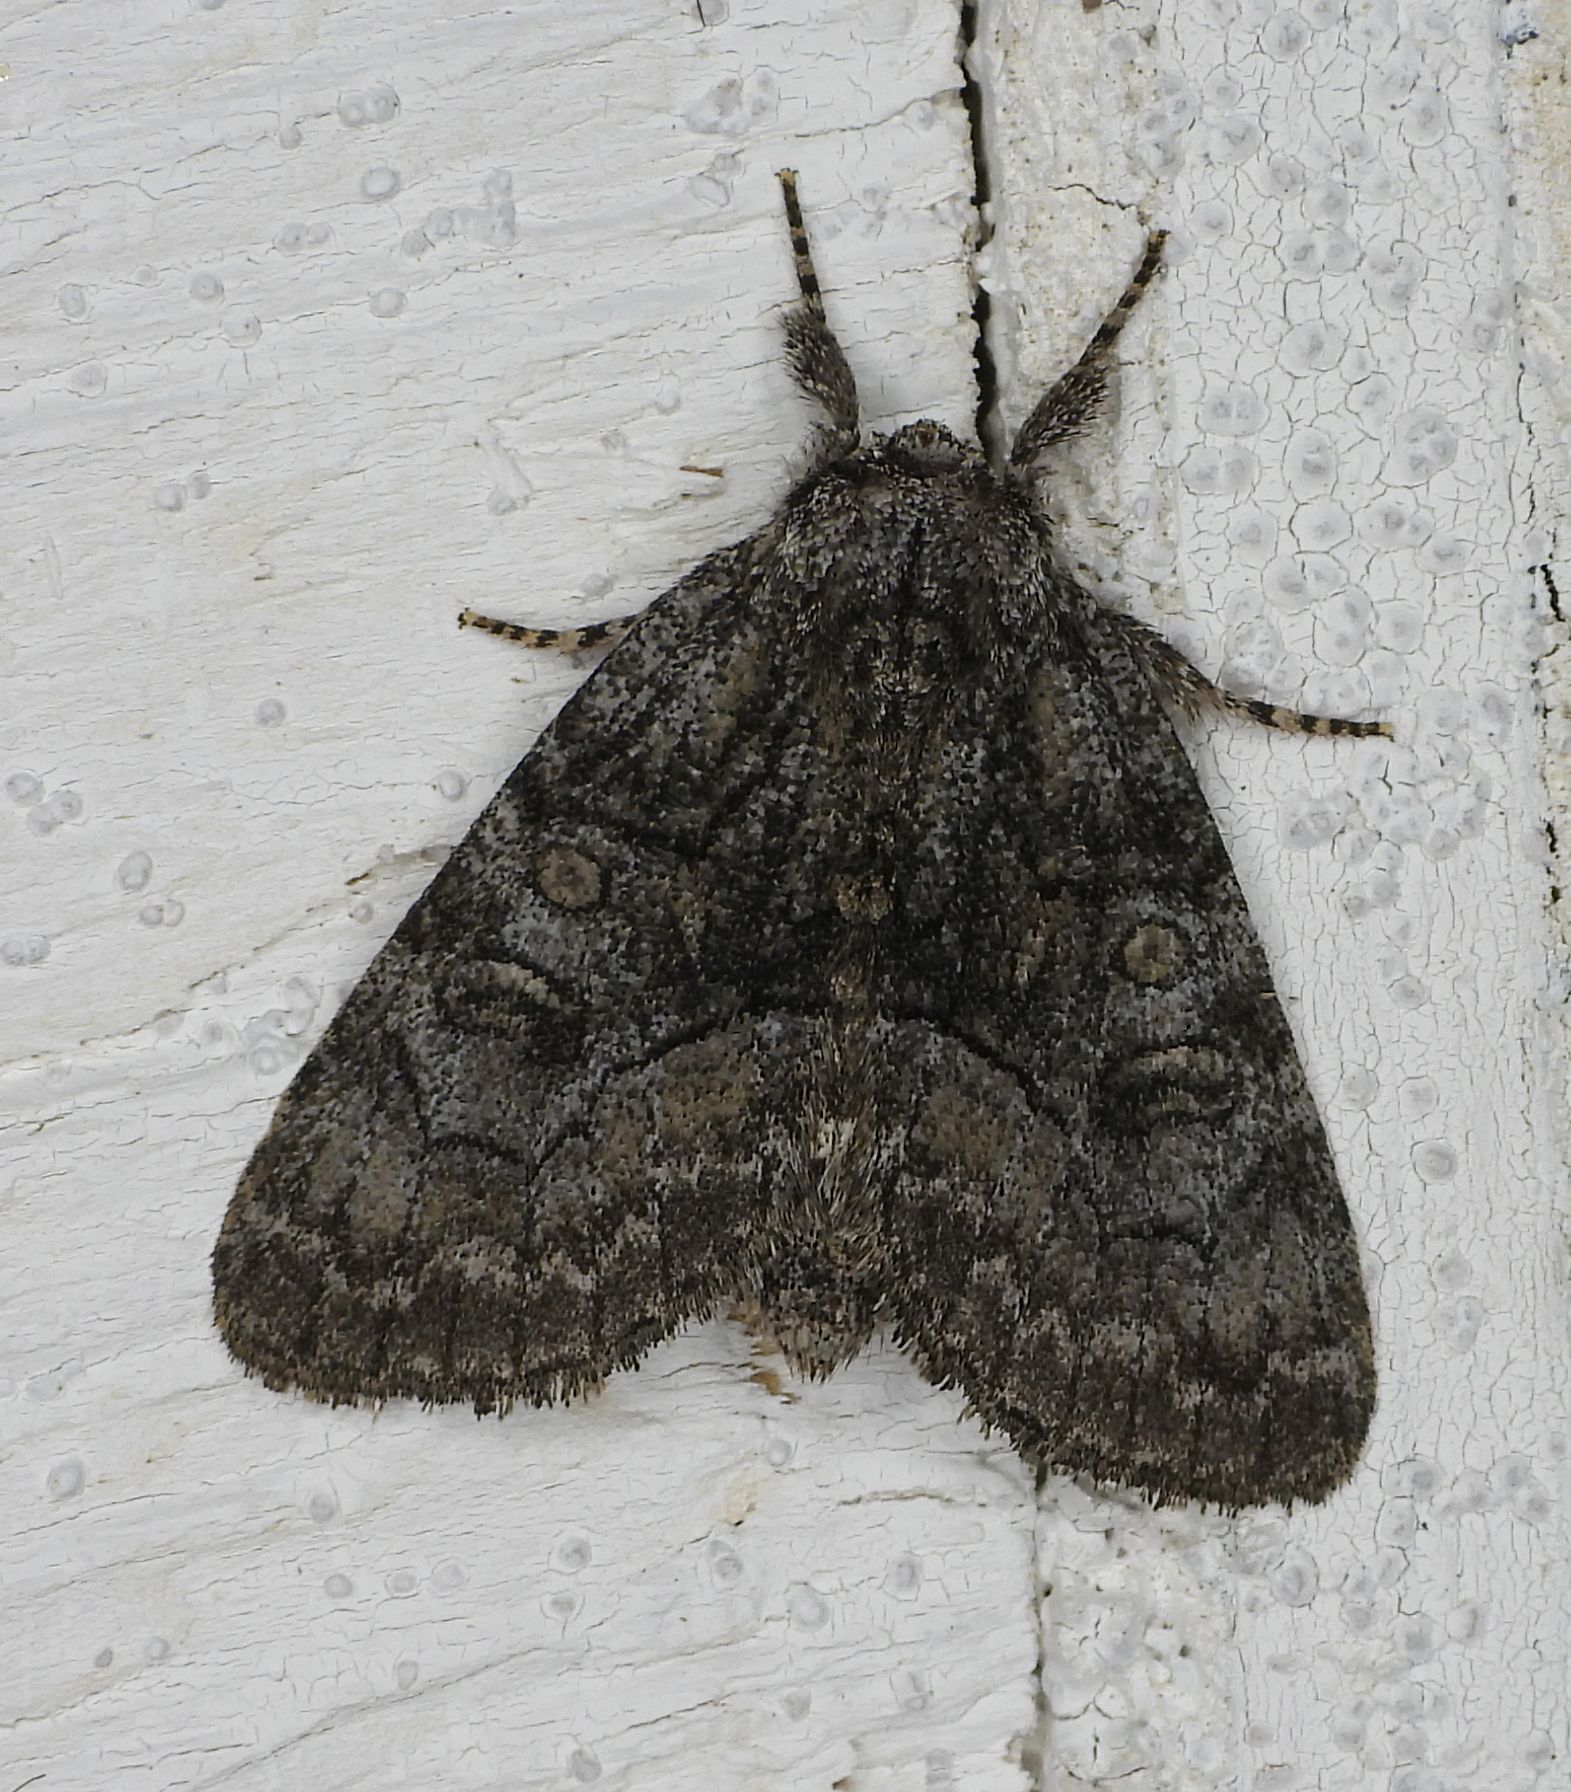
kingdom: Animalia
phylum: Arthropoda
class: Insecta
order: Lepidoptera
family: Noctuidae
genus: Raphia
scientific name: Raphia frater
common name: Brother
